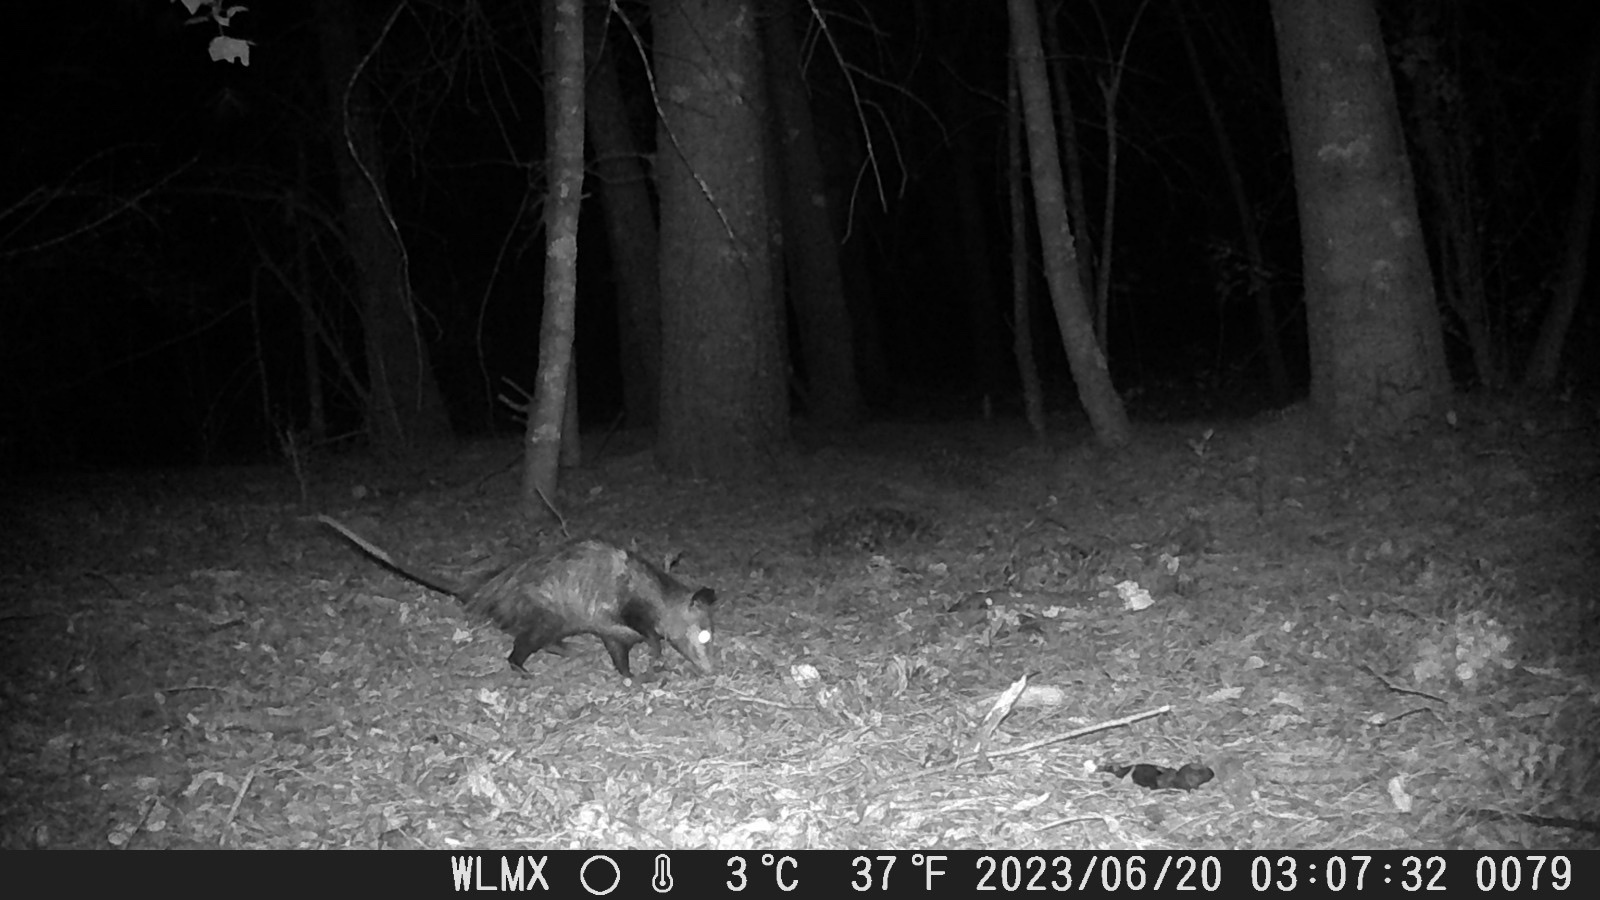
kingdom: Animalia
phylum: Chordata
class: Mammalia
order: Didelphimorphia
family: Didelphidae
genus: Didelphis
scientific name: Didelphis virginiana
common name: Virginia opossum
